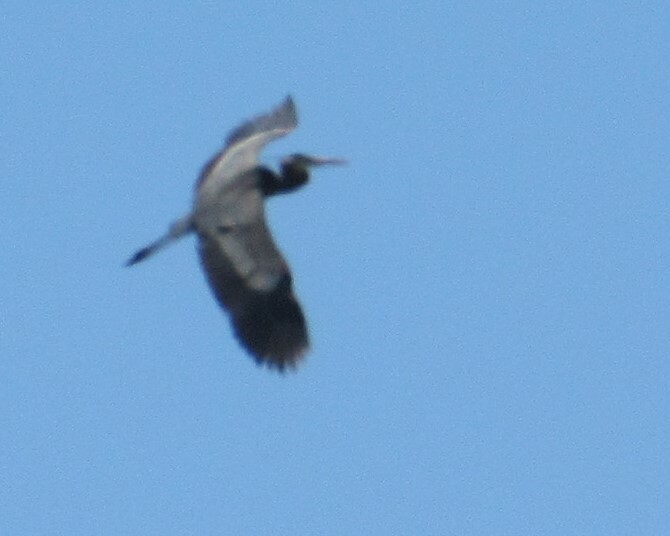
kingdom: Animalia
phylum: Chordata
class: Aves
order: Pelecaniformes
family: Ardeidae
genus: Ardea
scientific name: Ardea herodias
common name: Great blue heron
